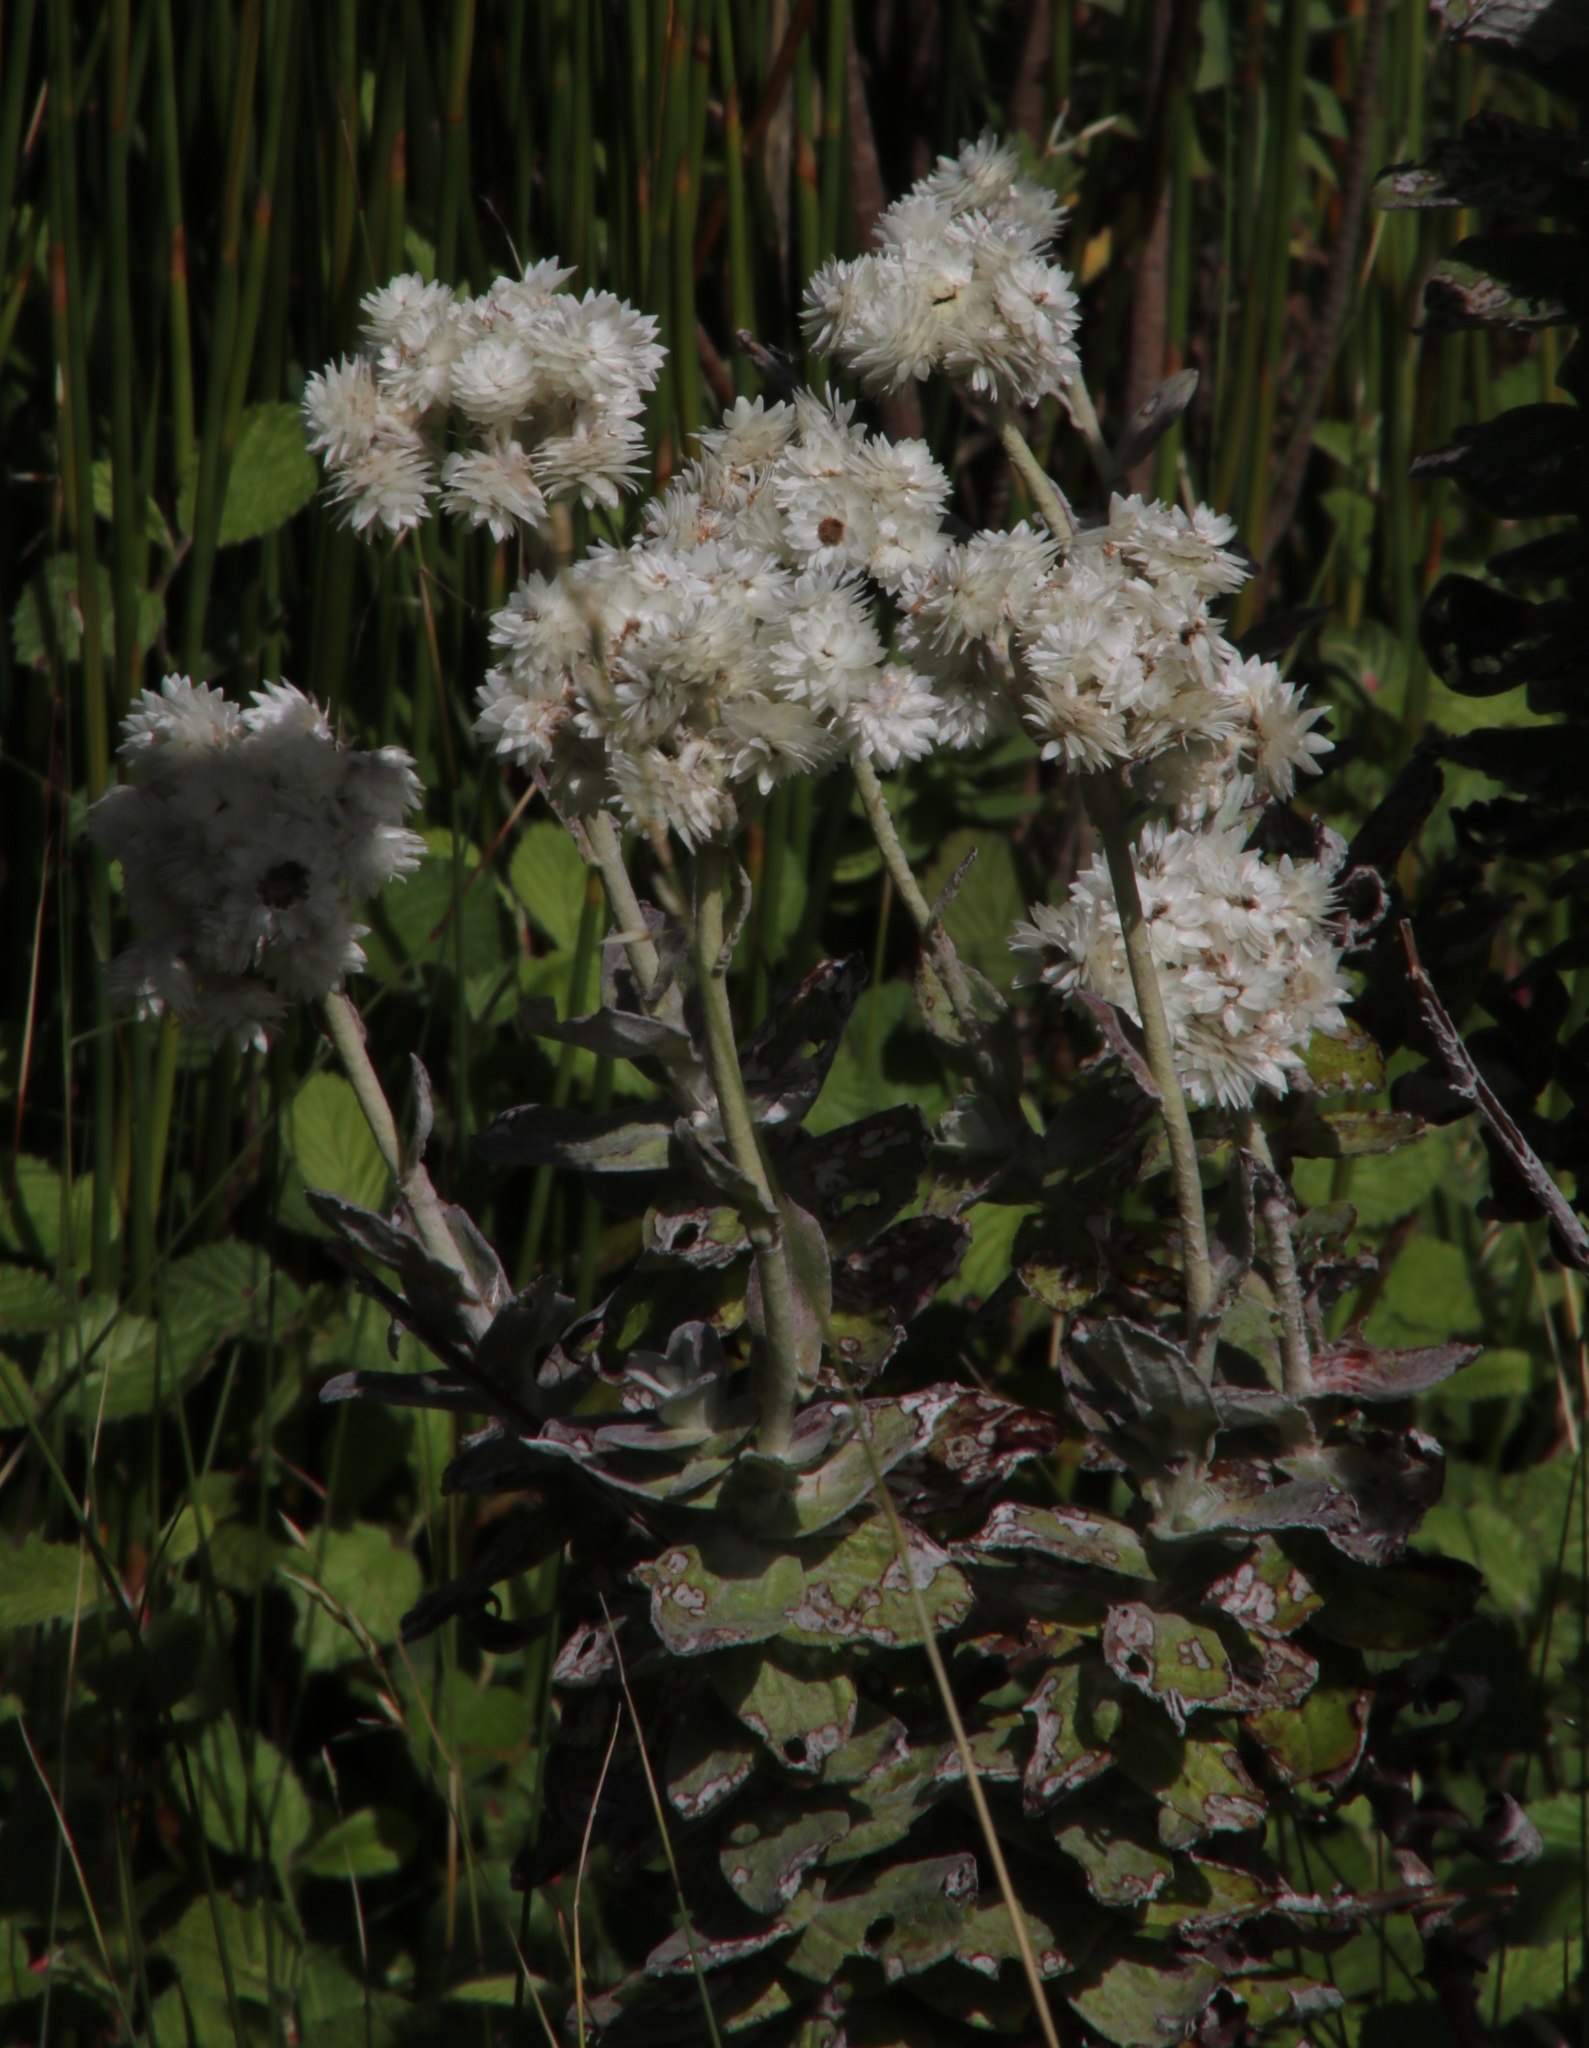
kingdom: Plantae
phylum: Tracheophyta
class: Magnoliopsida
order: Asterales
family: Asteraceae
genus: Helichrysum
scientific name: Helichrysum fruticans
